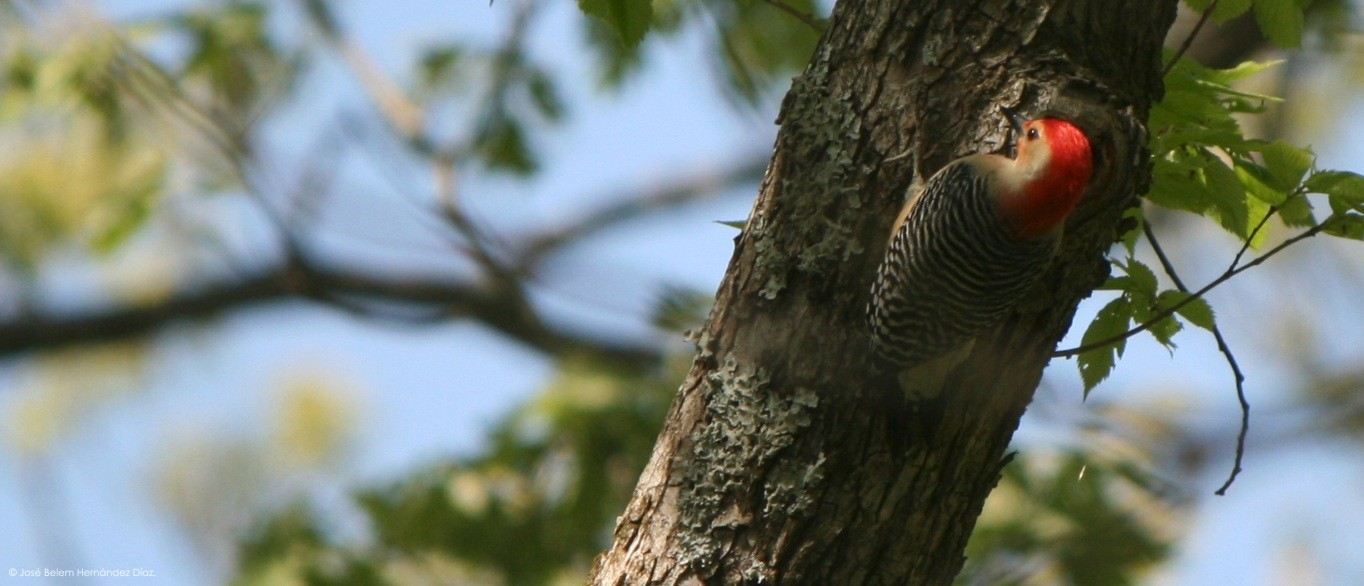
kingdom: Animalia
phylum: Chordata
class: Aves
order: Piciformes
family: Picidae
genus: Melanerpes
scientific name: Melanerpes carolinus
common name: Red-bellied woodpecker
